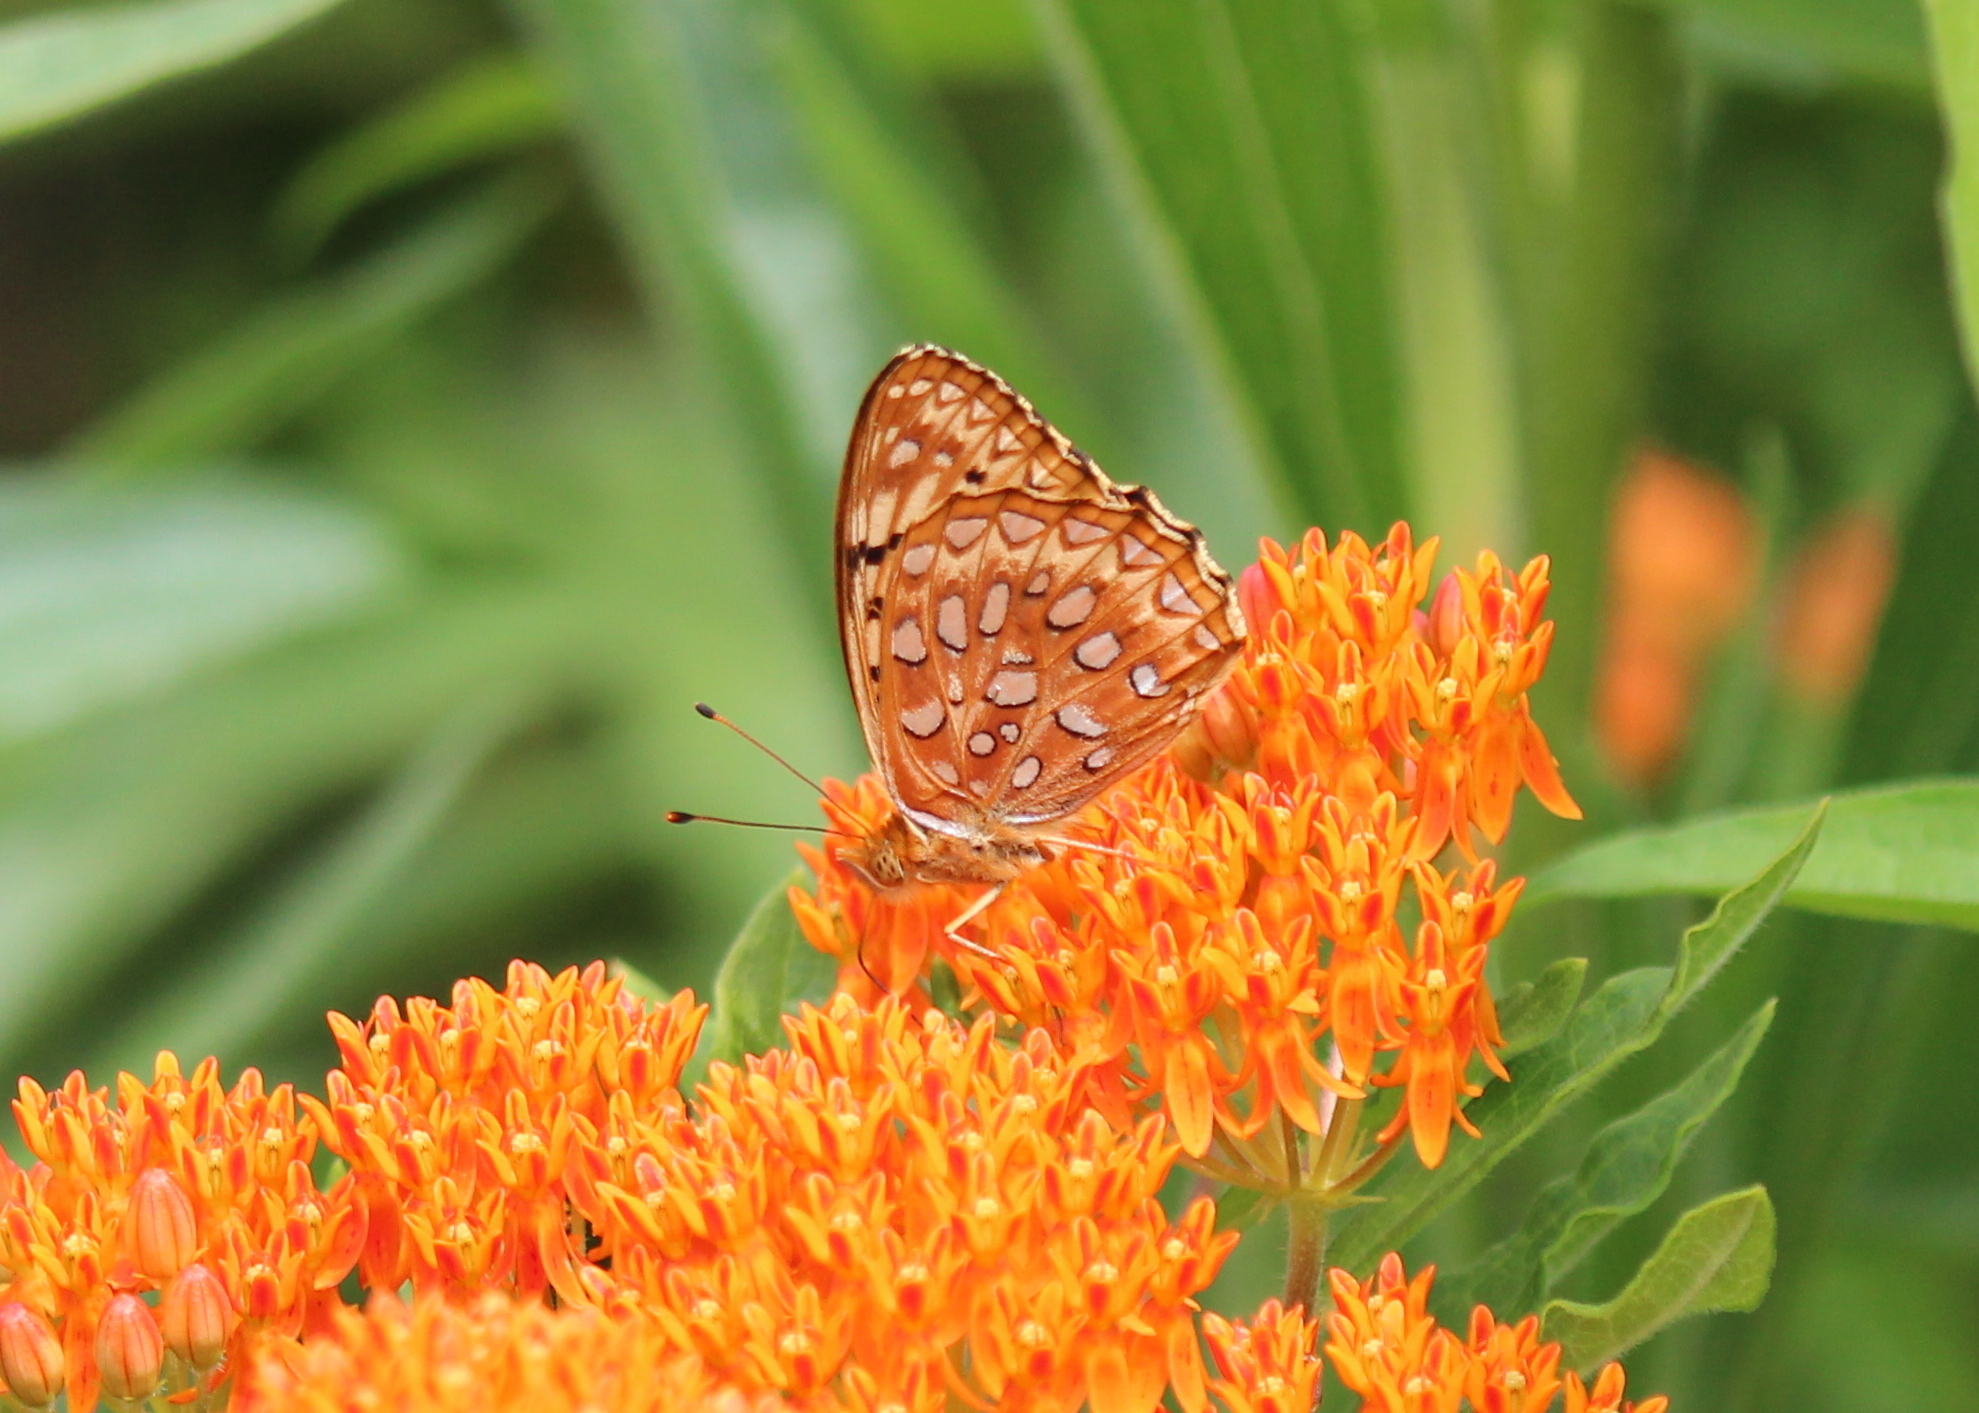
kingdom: Animalia
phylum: Arthropoda
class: Insecta
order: Lepidoptera
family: Nymphalidae
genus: Speyeria
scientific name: Speyeria aphrodite
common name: Aphrodite friitllary
